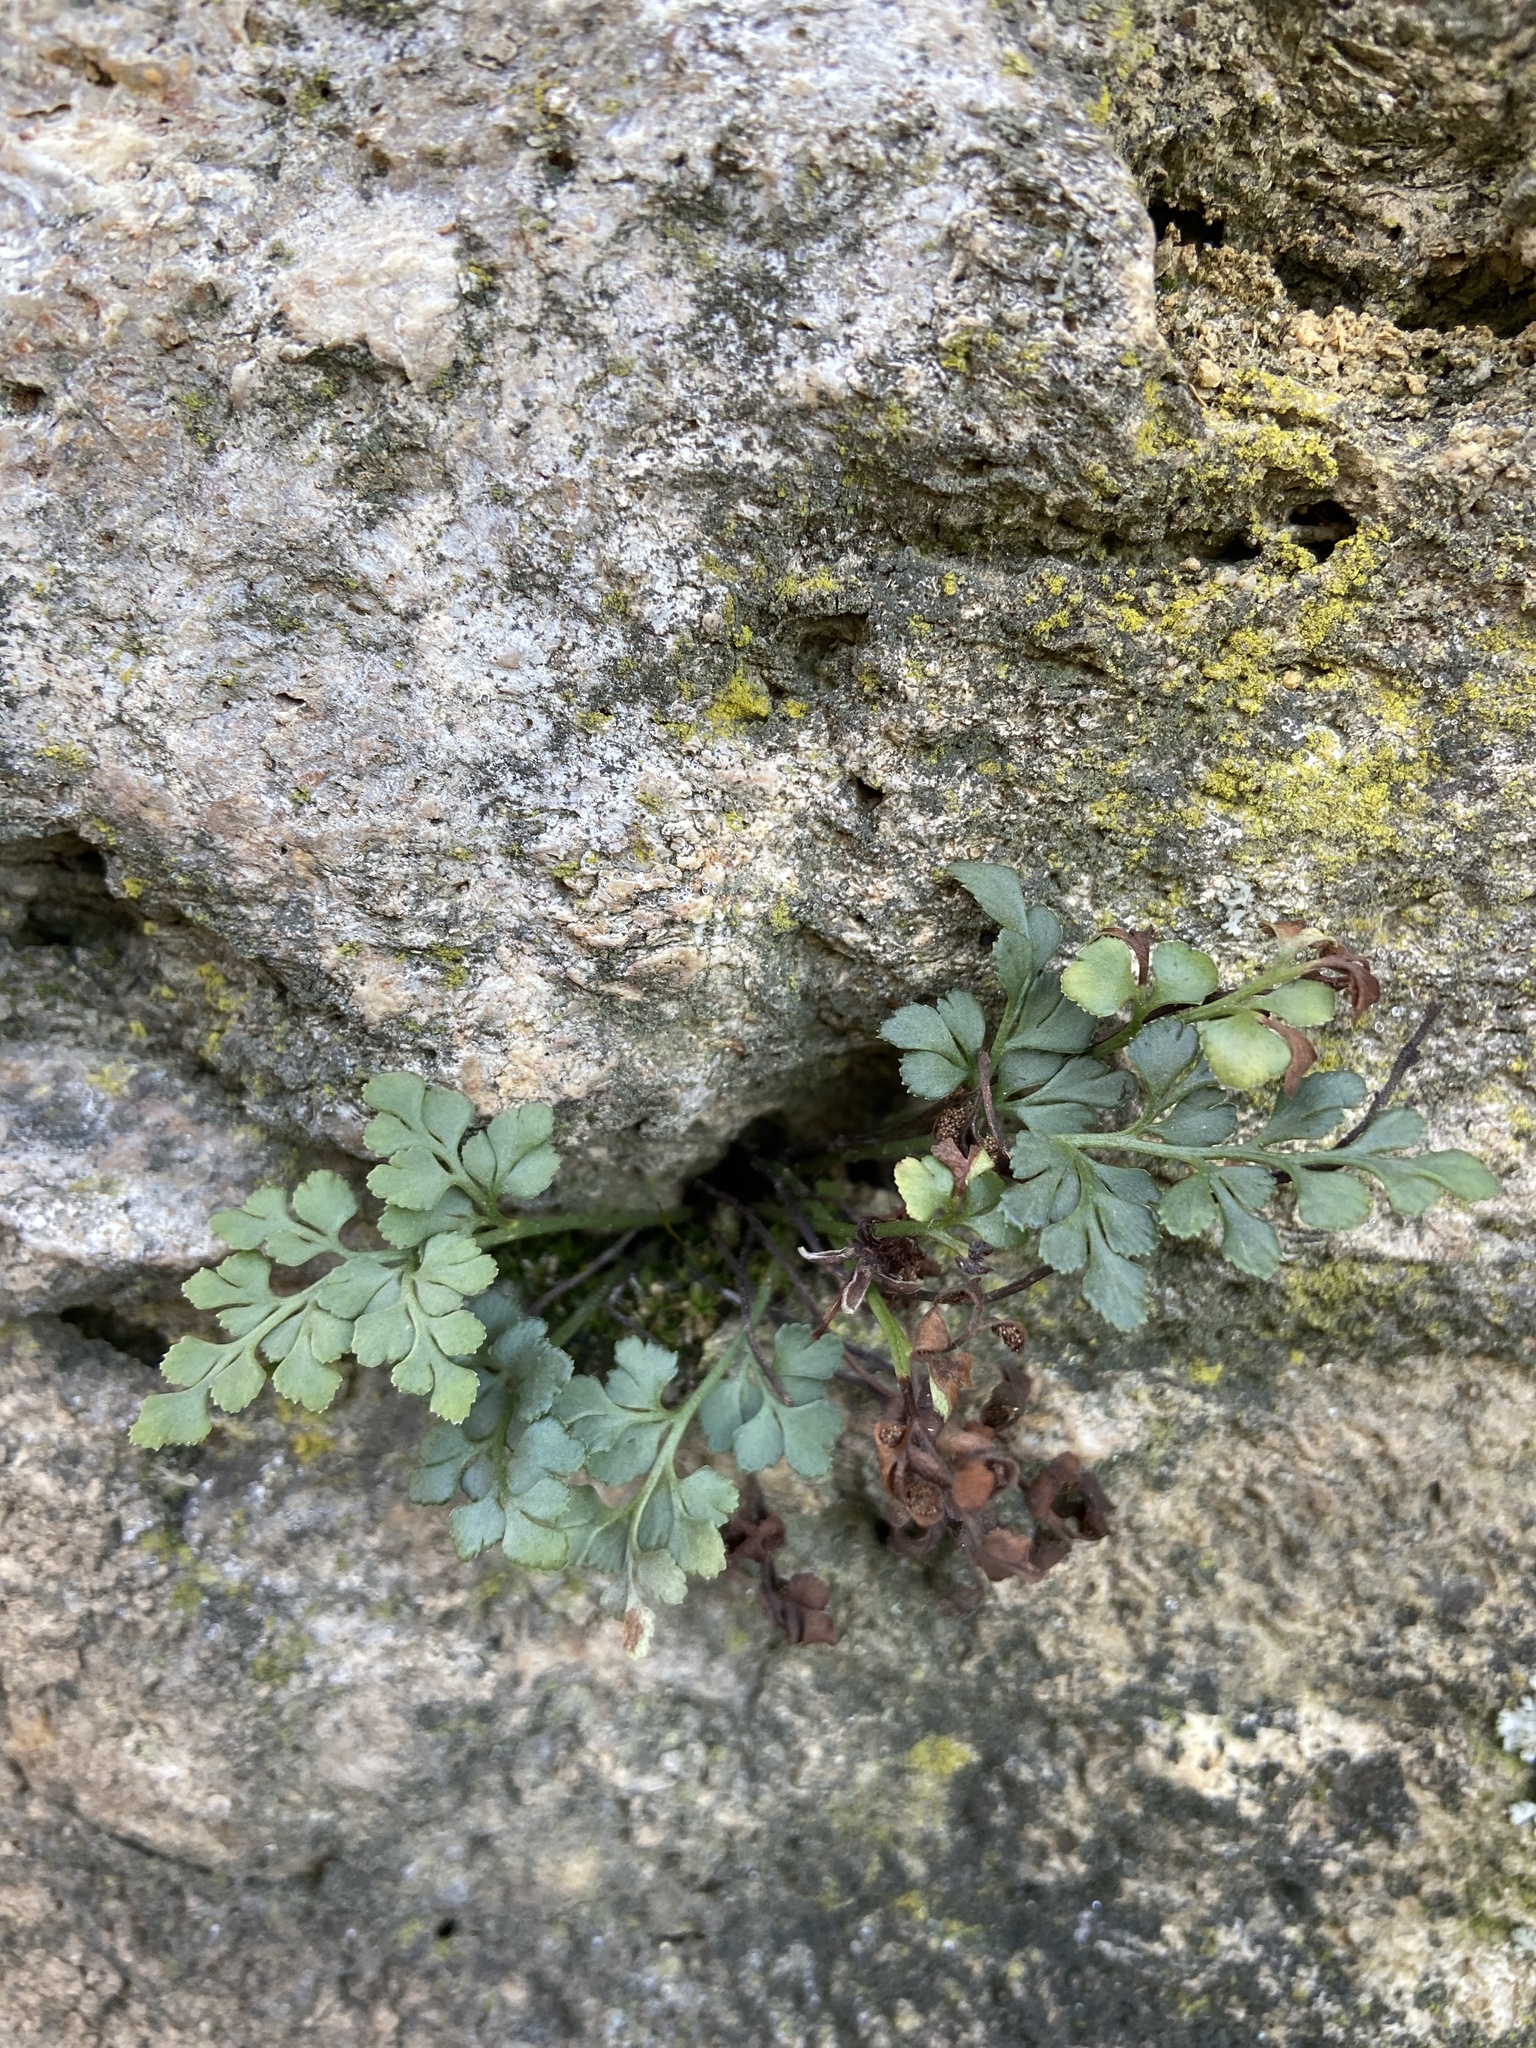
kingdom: Plantae
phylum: Tracheophyta
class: Polypodiopsida
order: Polypodiales
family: Aspleniaceae
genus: Asplenium
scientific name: Asplenium ruta-muraria
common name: Wall-rue
